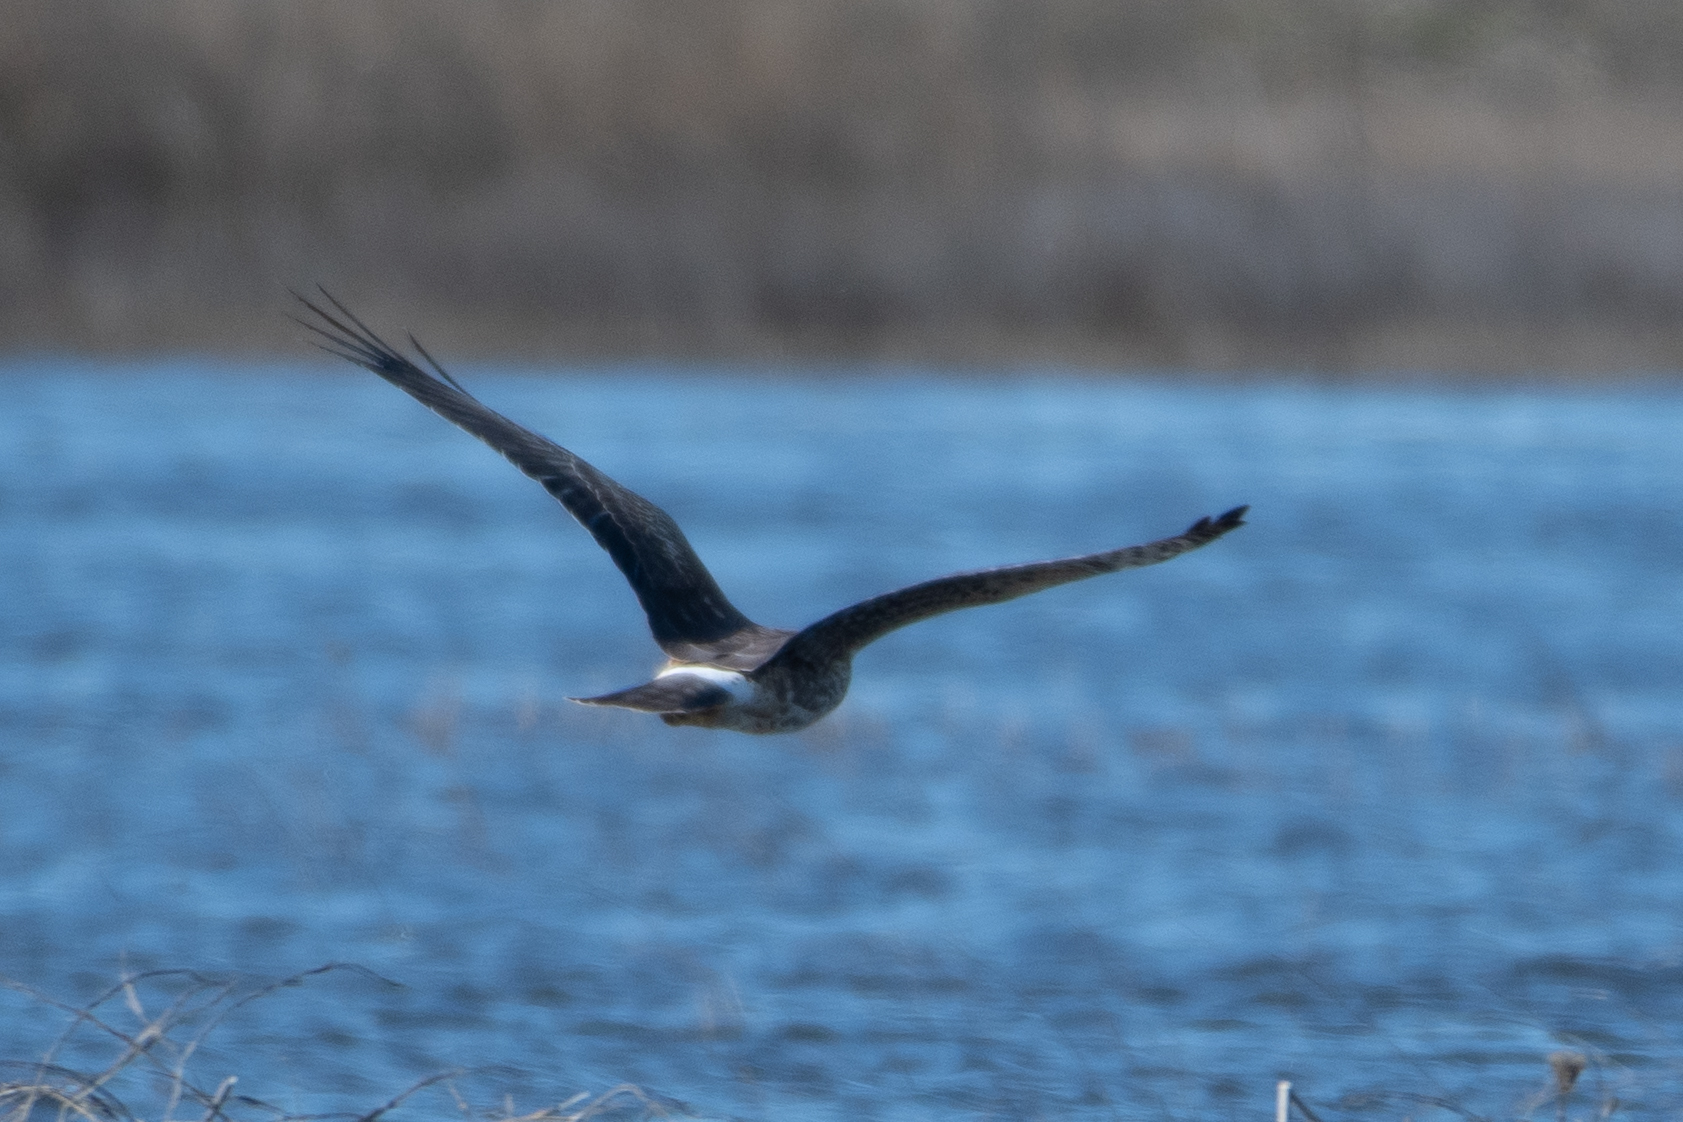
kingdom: Animalia
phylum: Chordata
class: Aves
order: Accipitriformes
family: Accipitridae
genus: Circus
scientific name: Circus cyaneus
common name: Hen harrier
